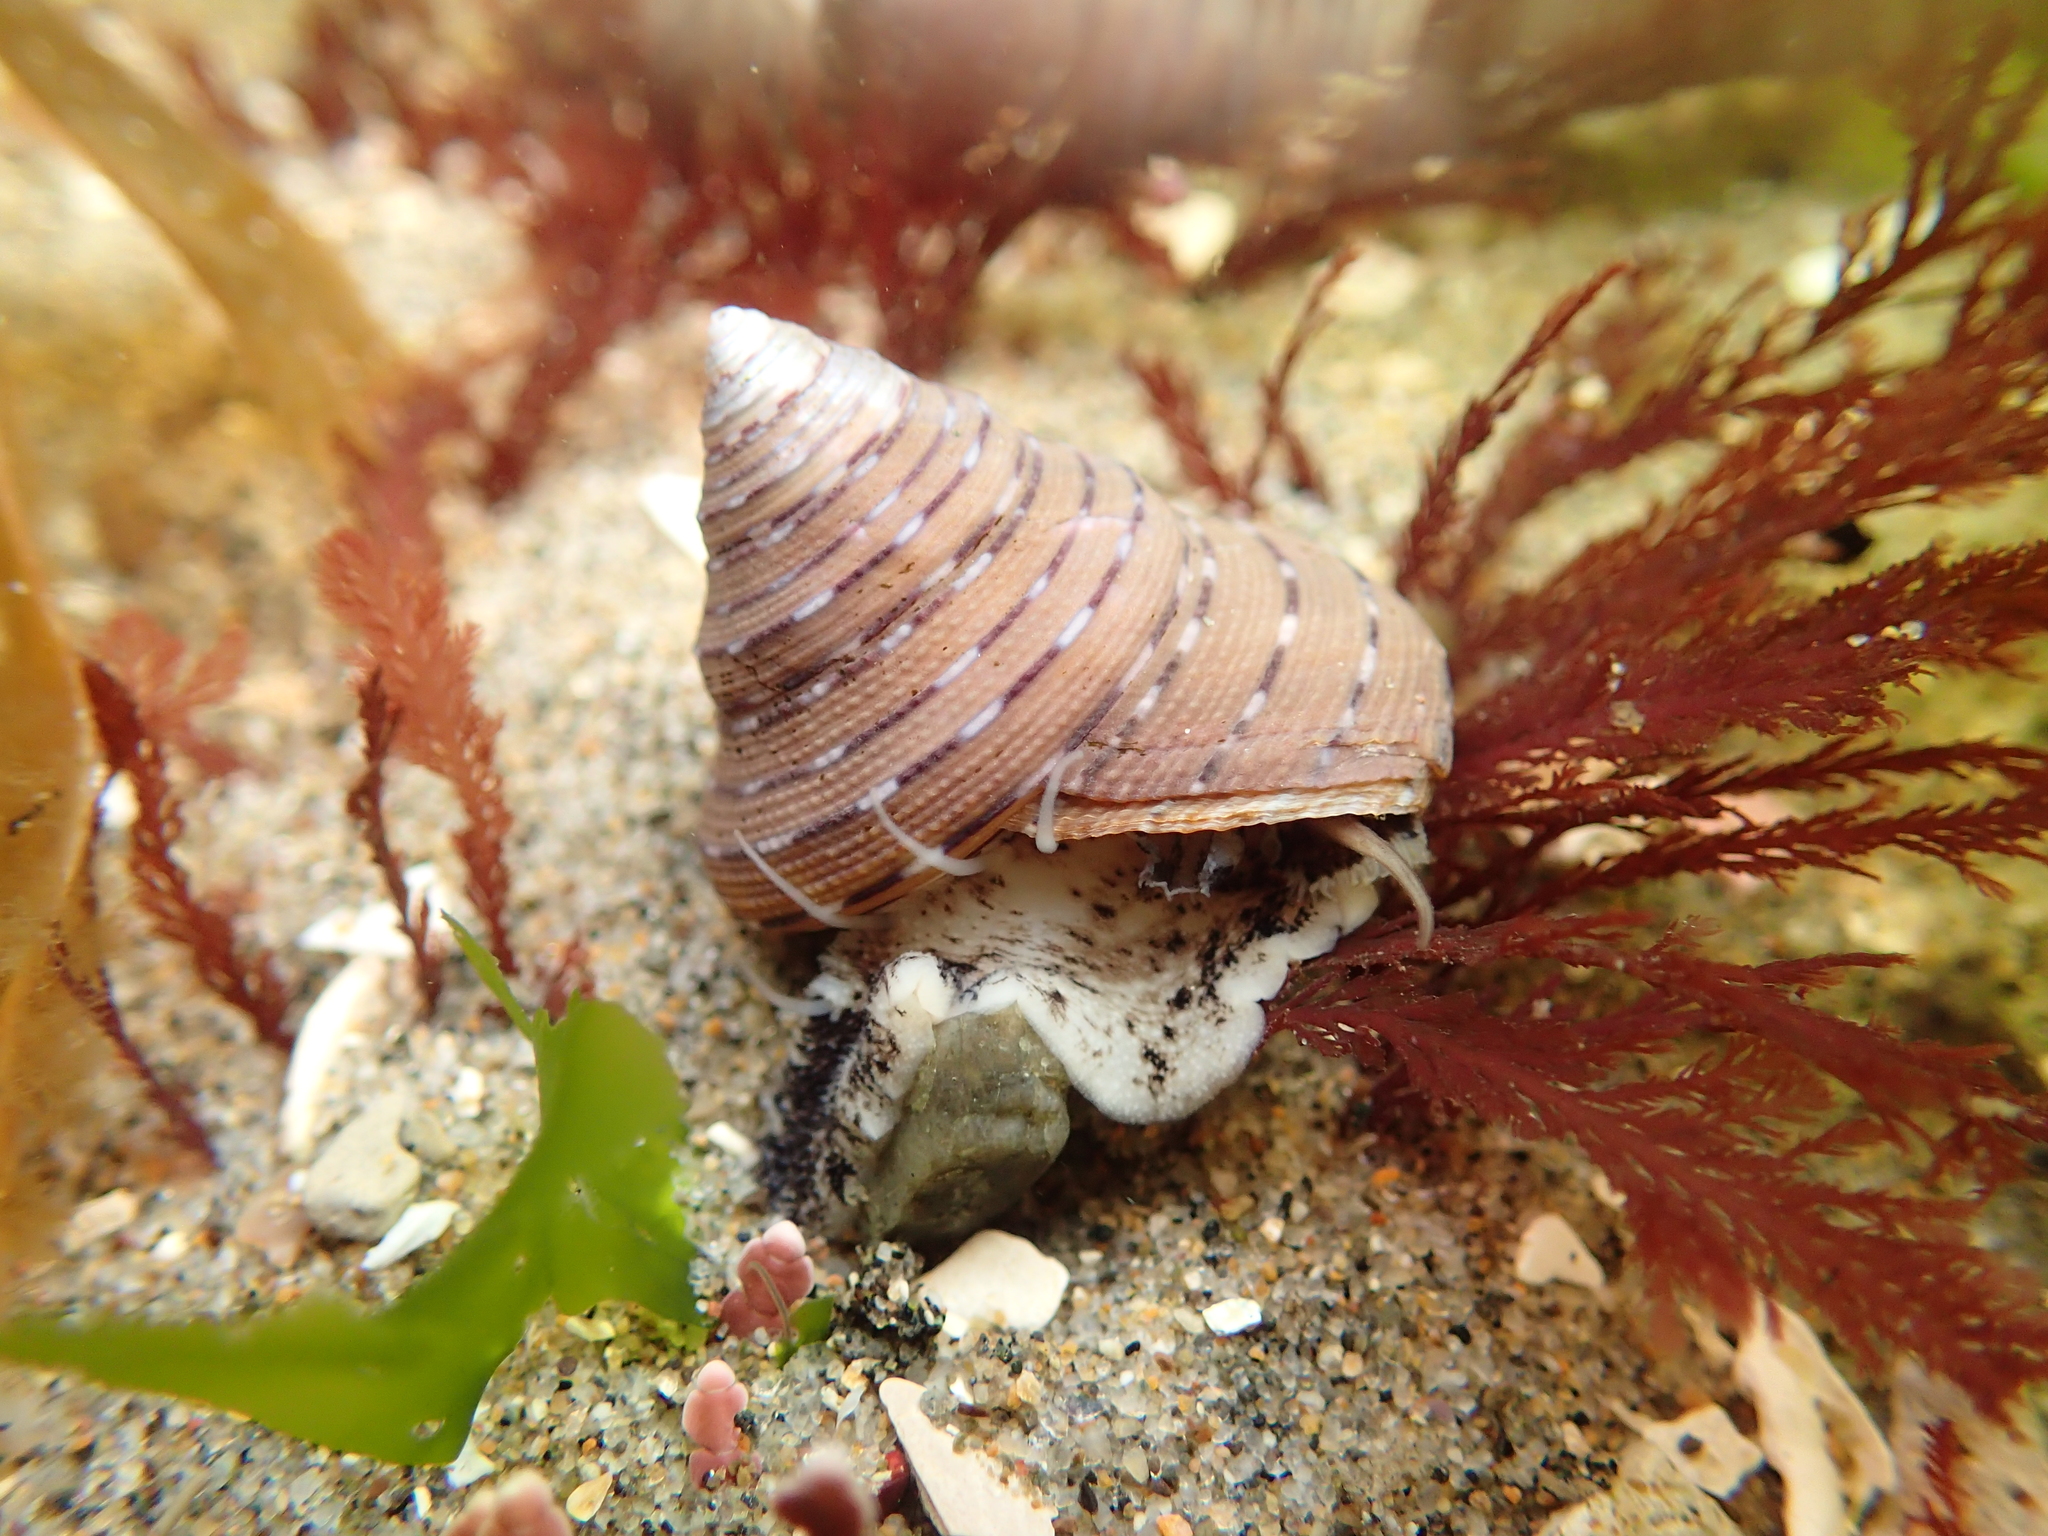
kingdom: Animalia
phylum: Mollusca
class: Gastropoda
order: Trochida
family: Calliostomatidae
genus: Calliostoma
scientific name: Calliostoma tricolor
